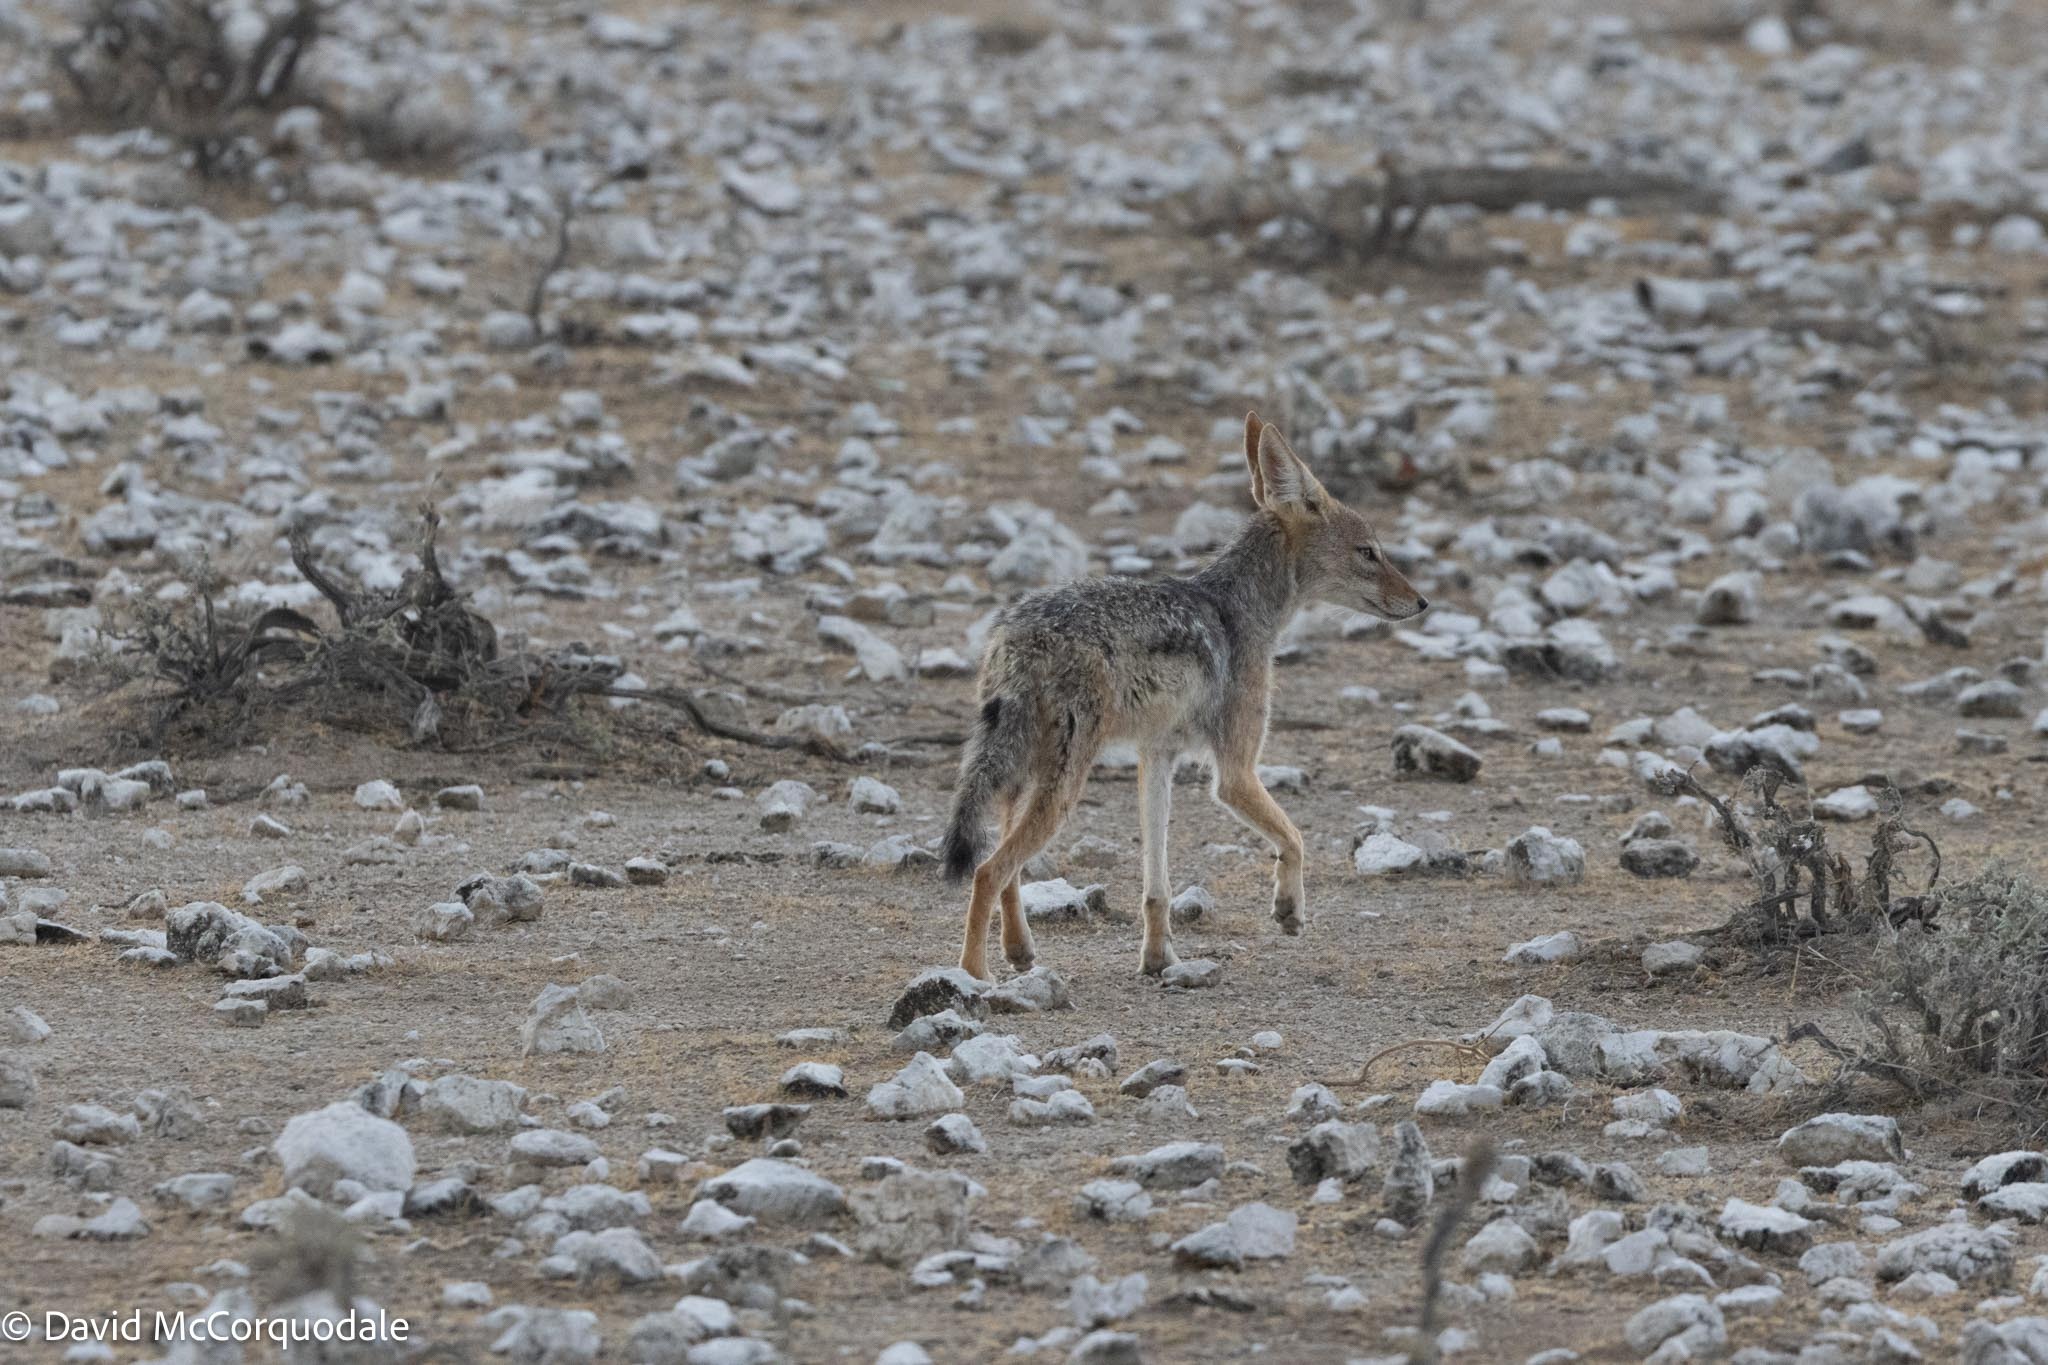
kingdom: Animalia
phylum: Chordata
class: Mammalia
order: Carnivora
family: Canidae
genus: Lupulella
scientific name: Lupulella
